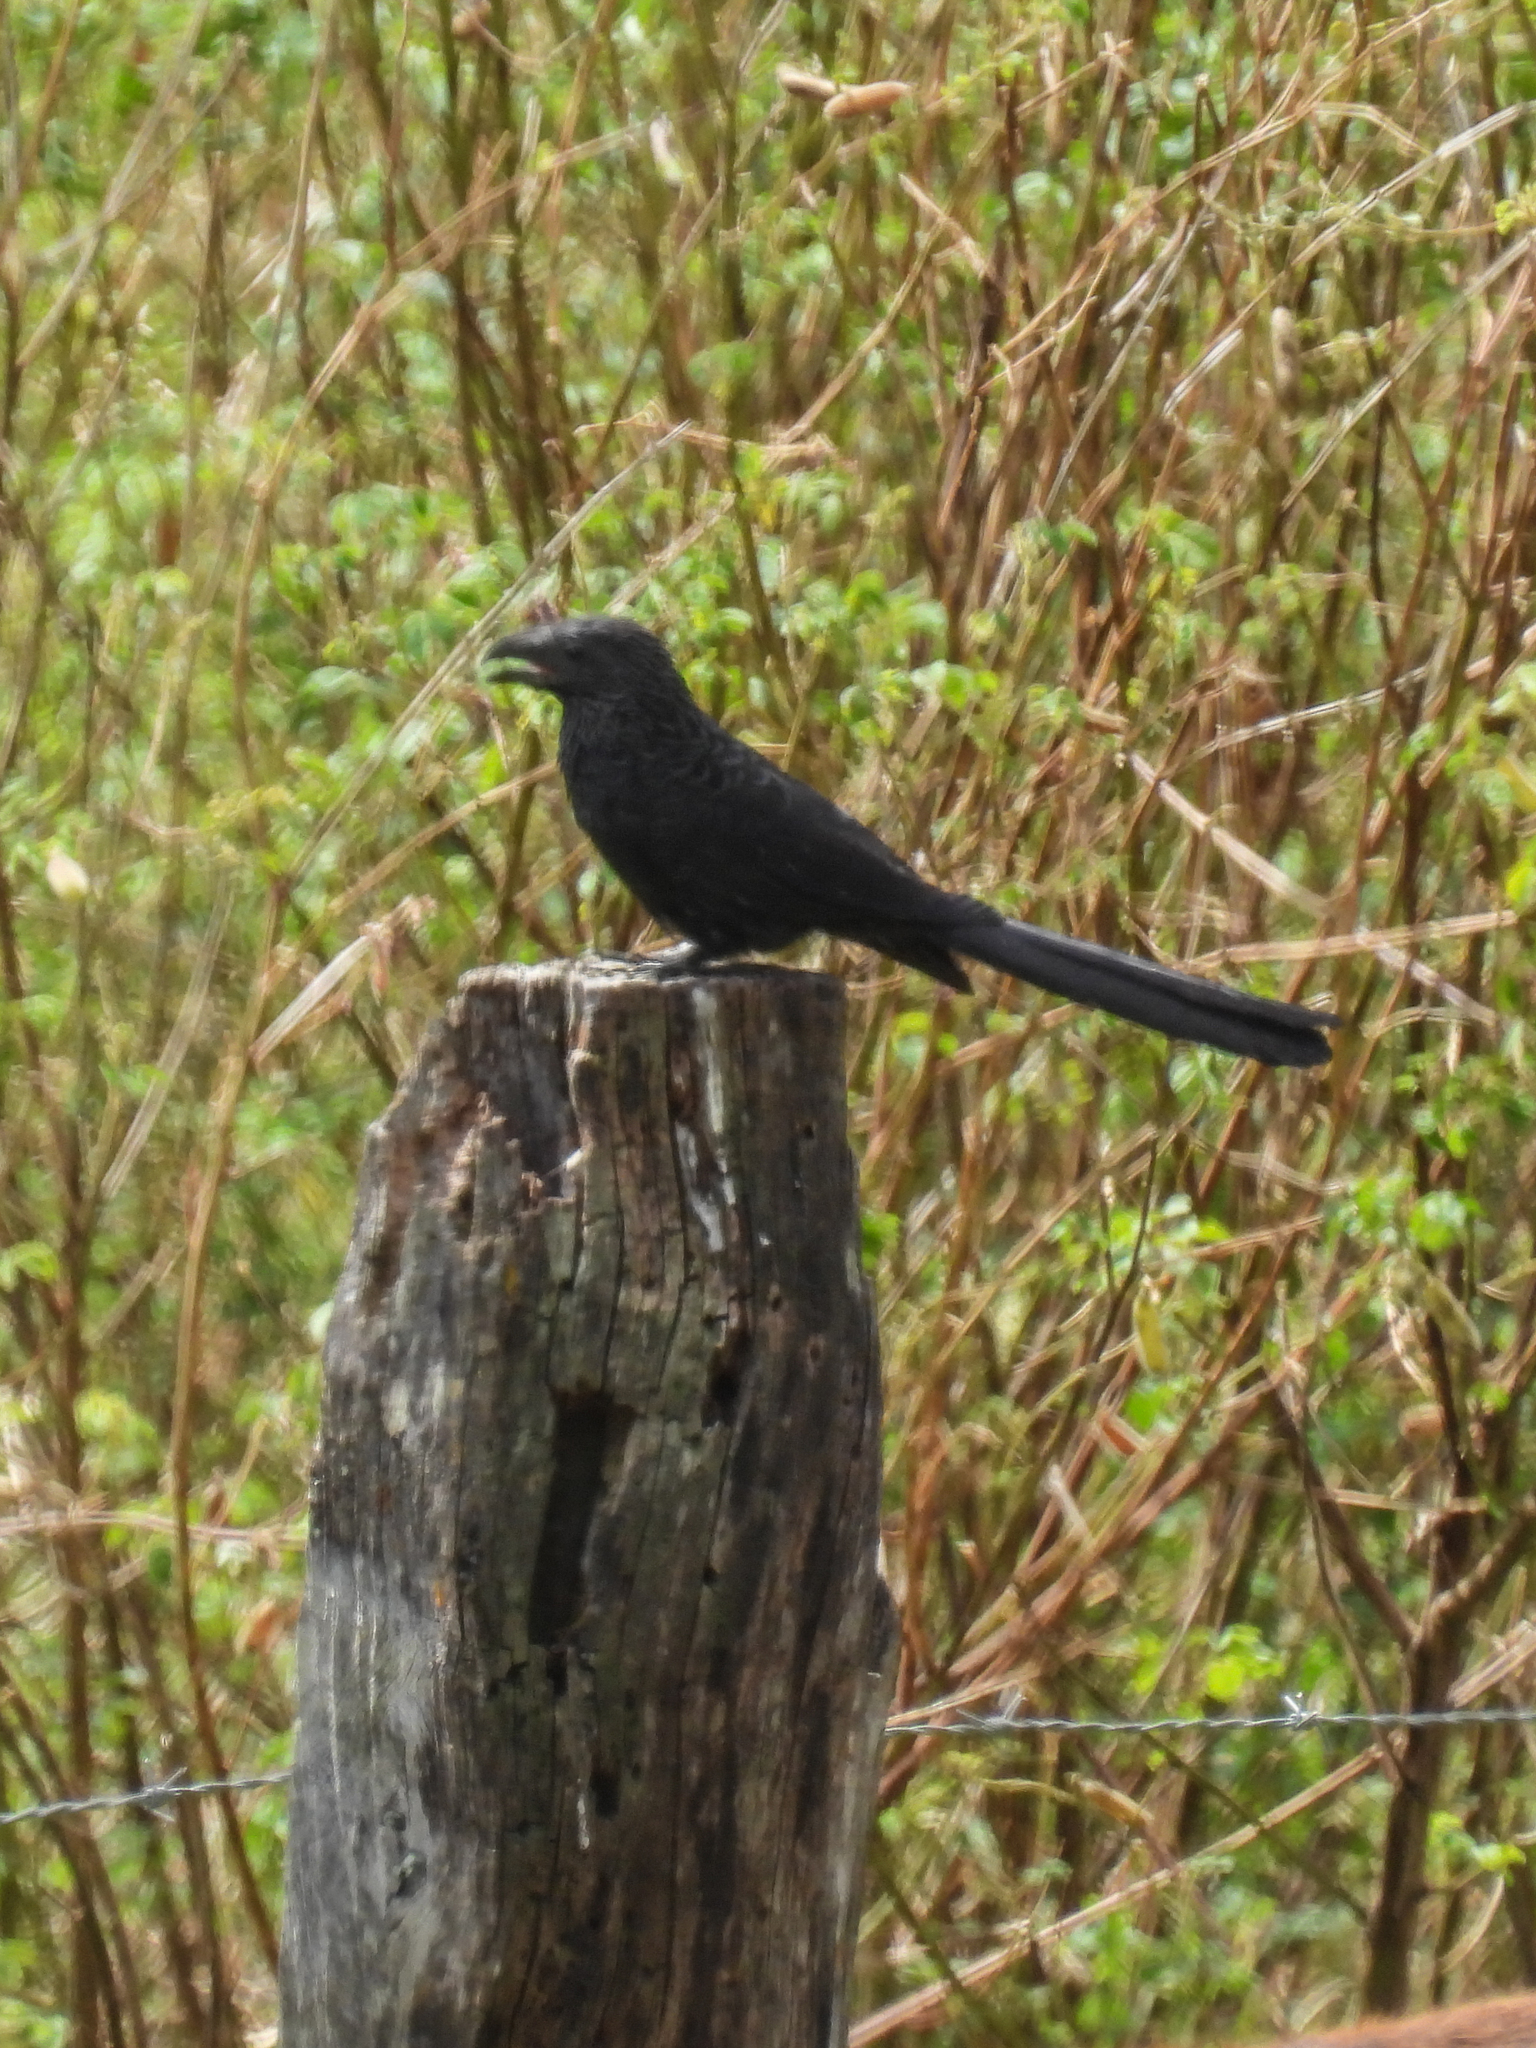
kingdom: Animalia
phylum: Chordata
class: Aves
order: Cuculiformes
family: Cuculidae
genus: Crotophaga
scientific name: Crotophaga sulcirostris
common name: Groove-billed ani
